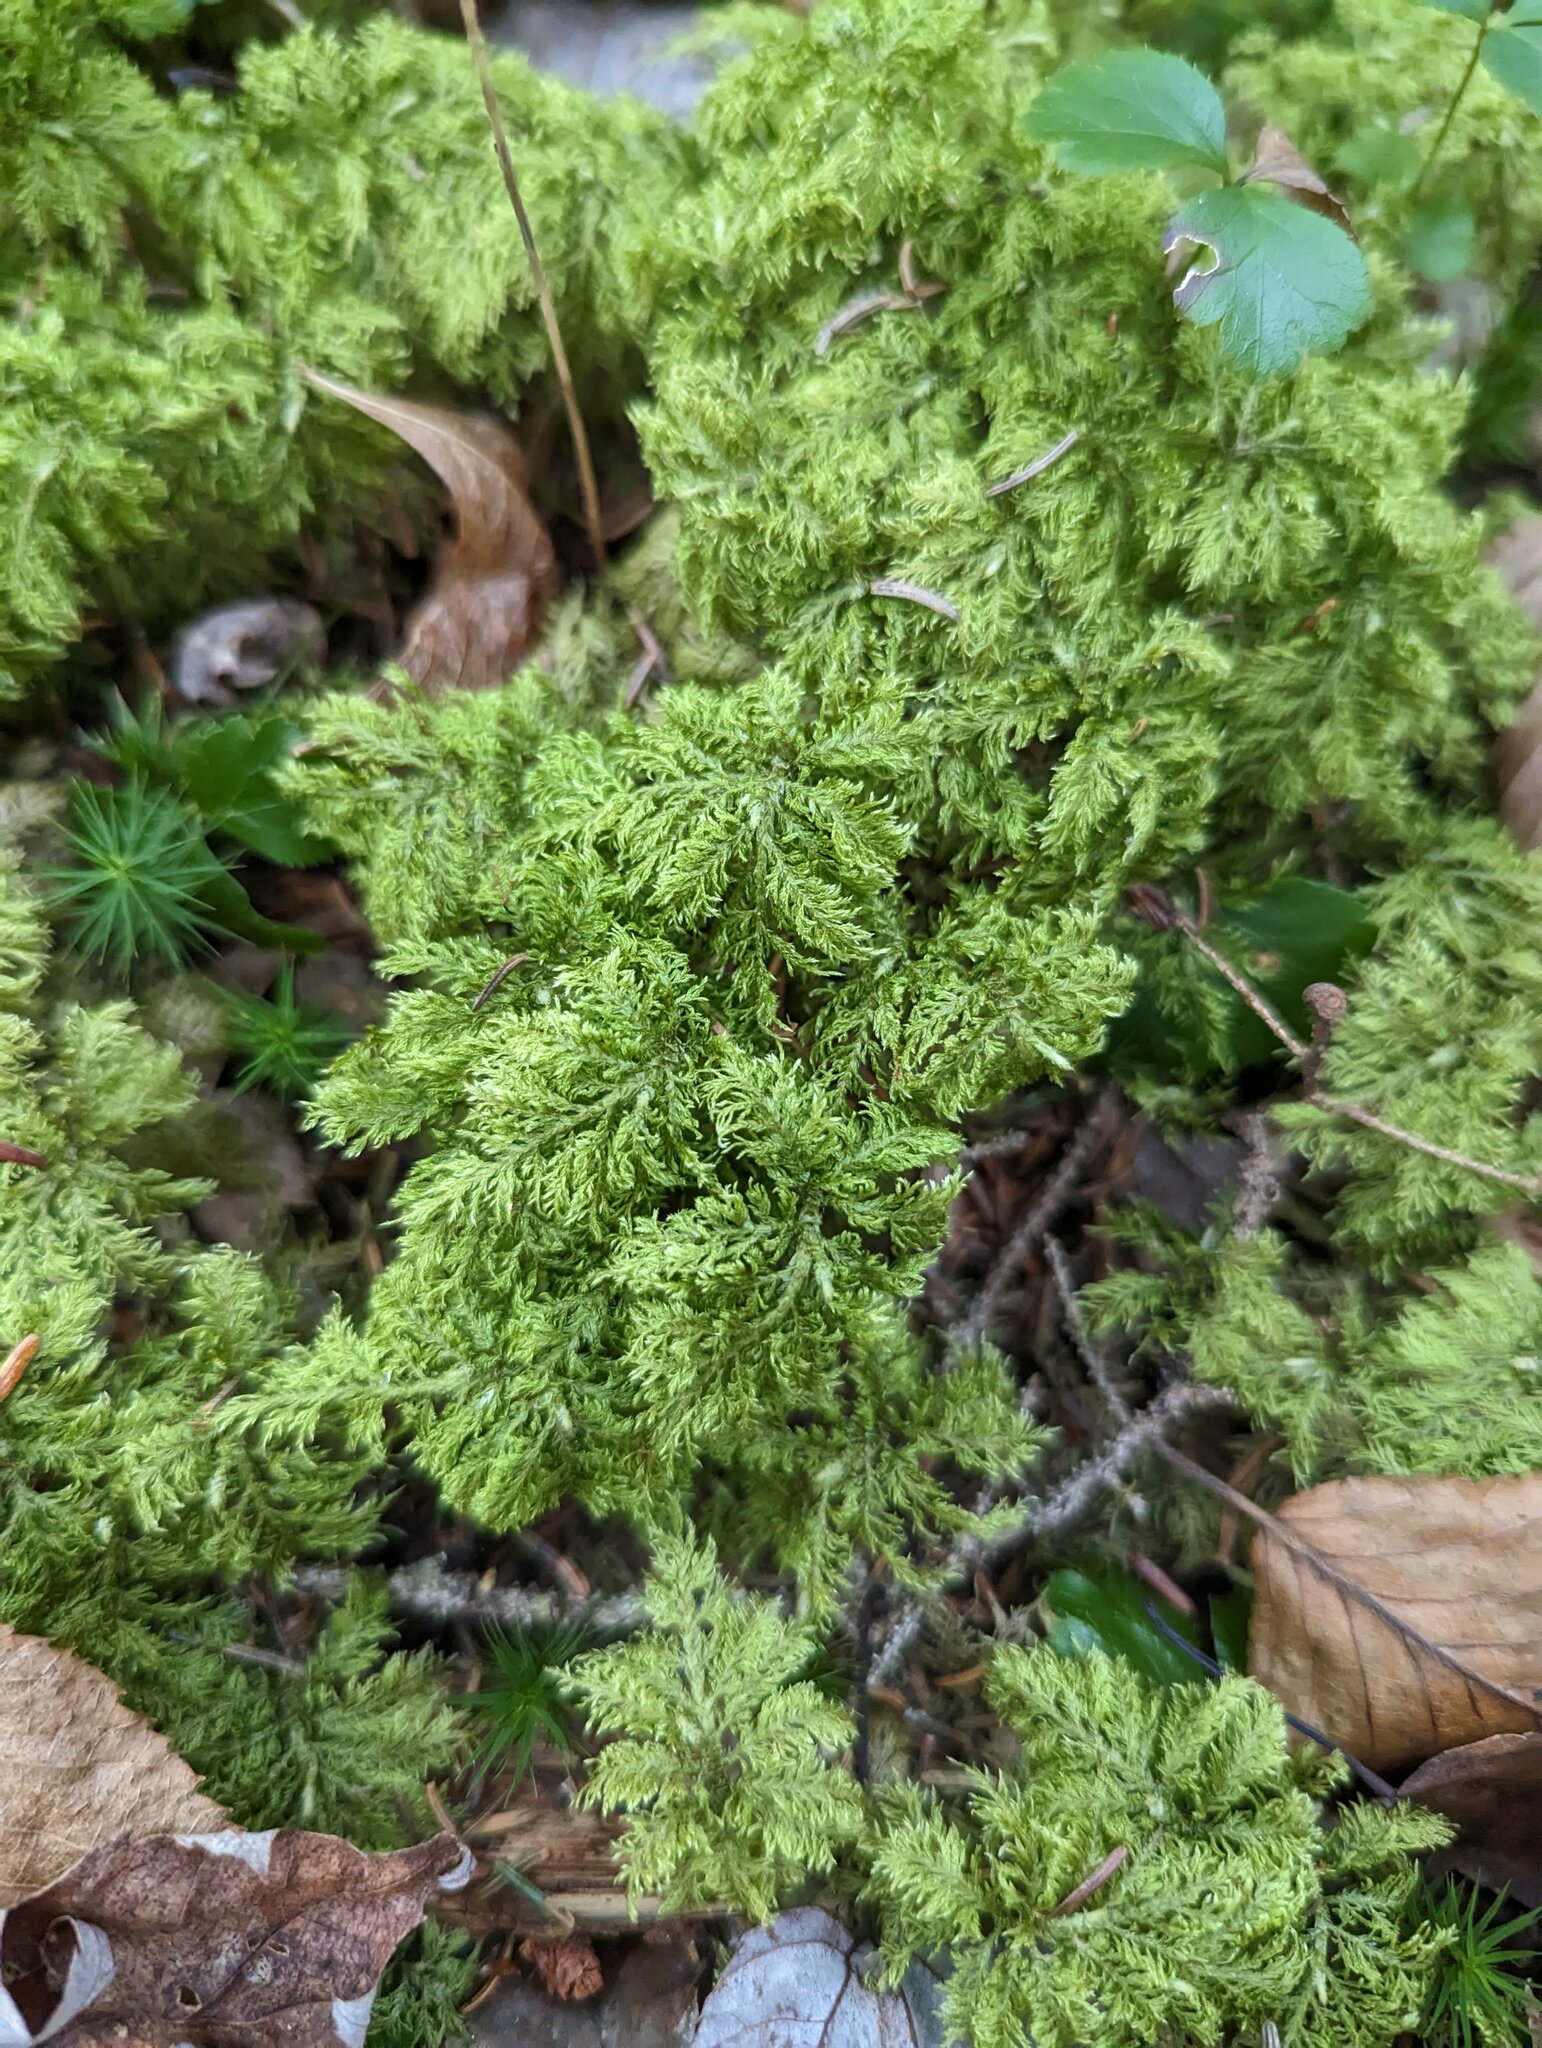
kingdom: Plantae
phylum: Bryophyta
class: Bryopsida
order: Hypnales
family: Hylocomiaceae
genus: Hylocomium
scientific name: Hylocomium splendens
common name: Stairstep moss
